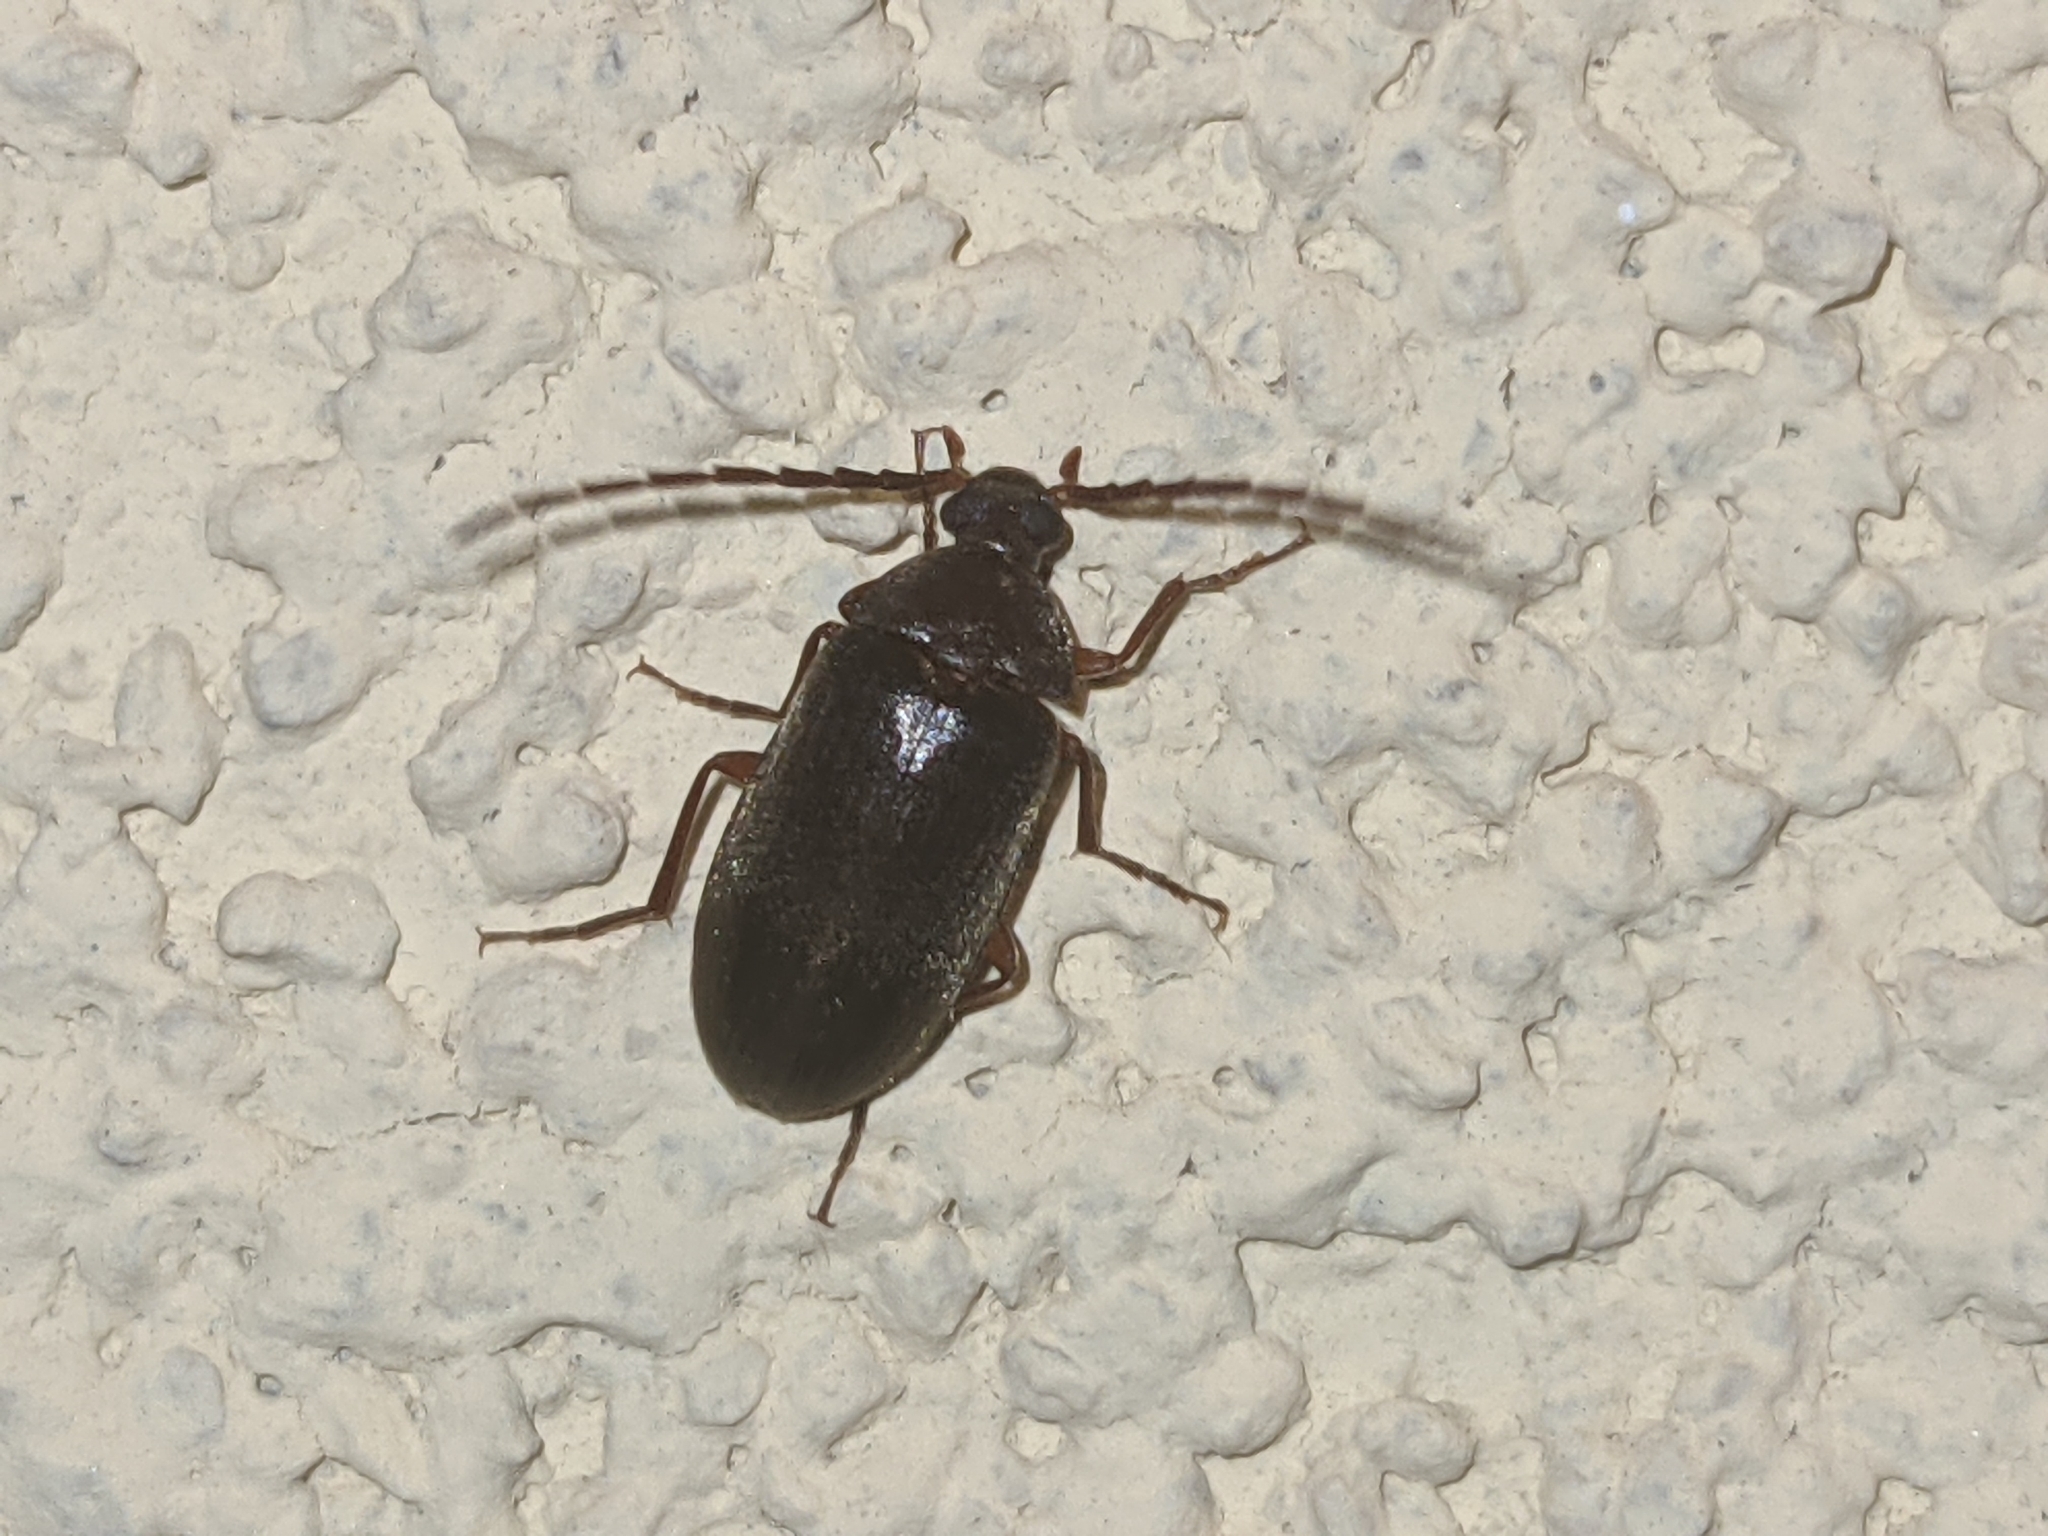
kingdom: Animalia
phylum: Arthropoda
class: Insecta
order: Coleoptera
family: Tenebrionidae
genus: Allecula
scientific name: Allecula morio
